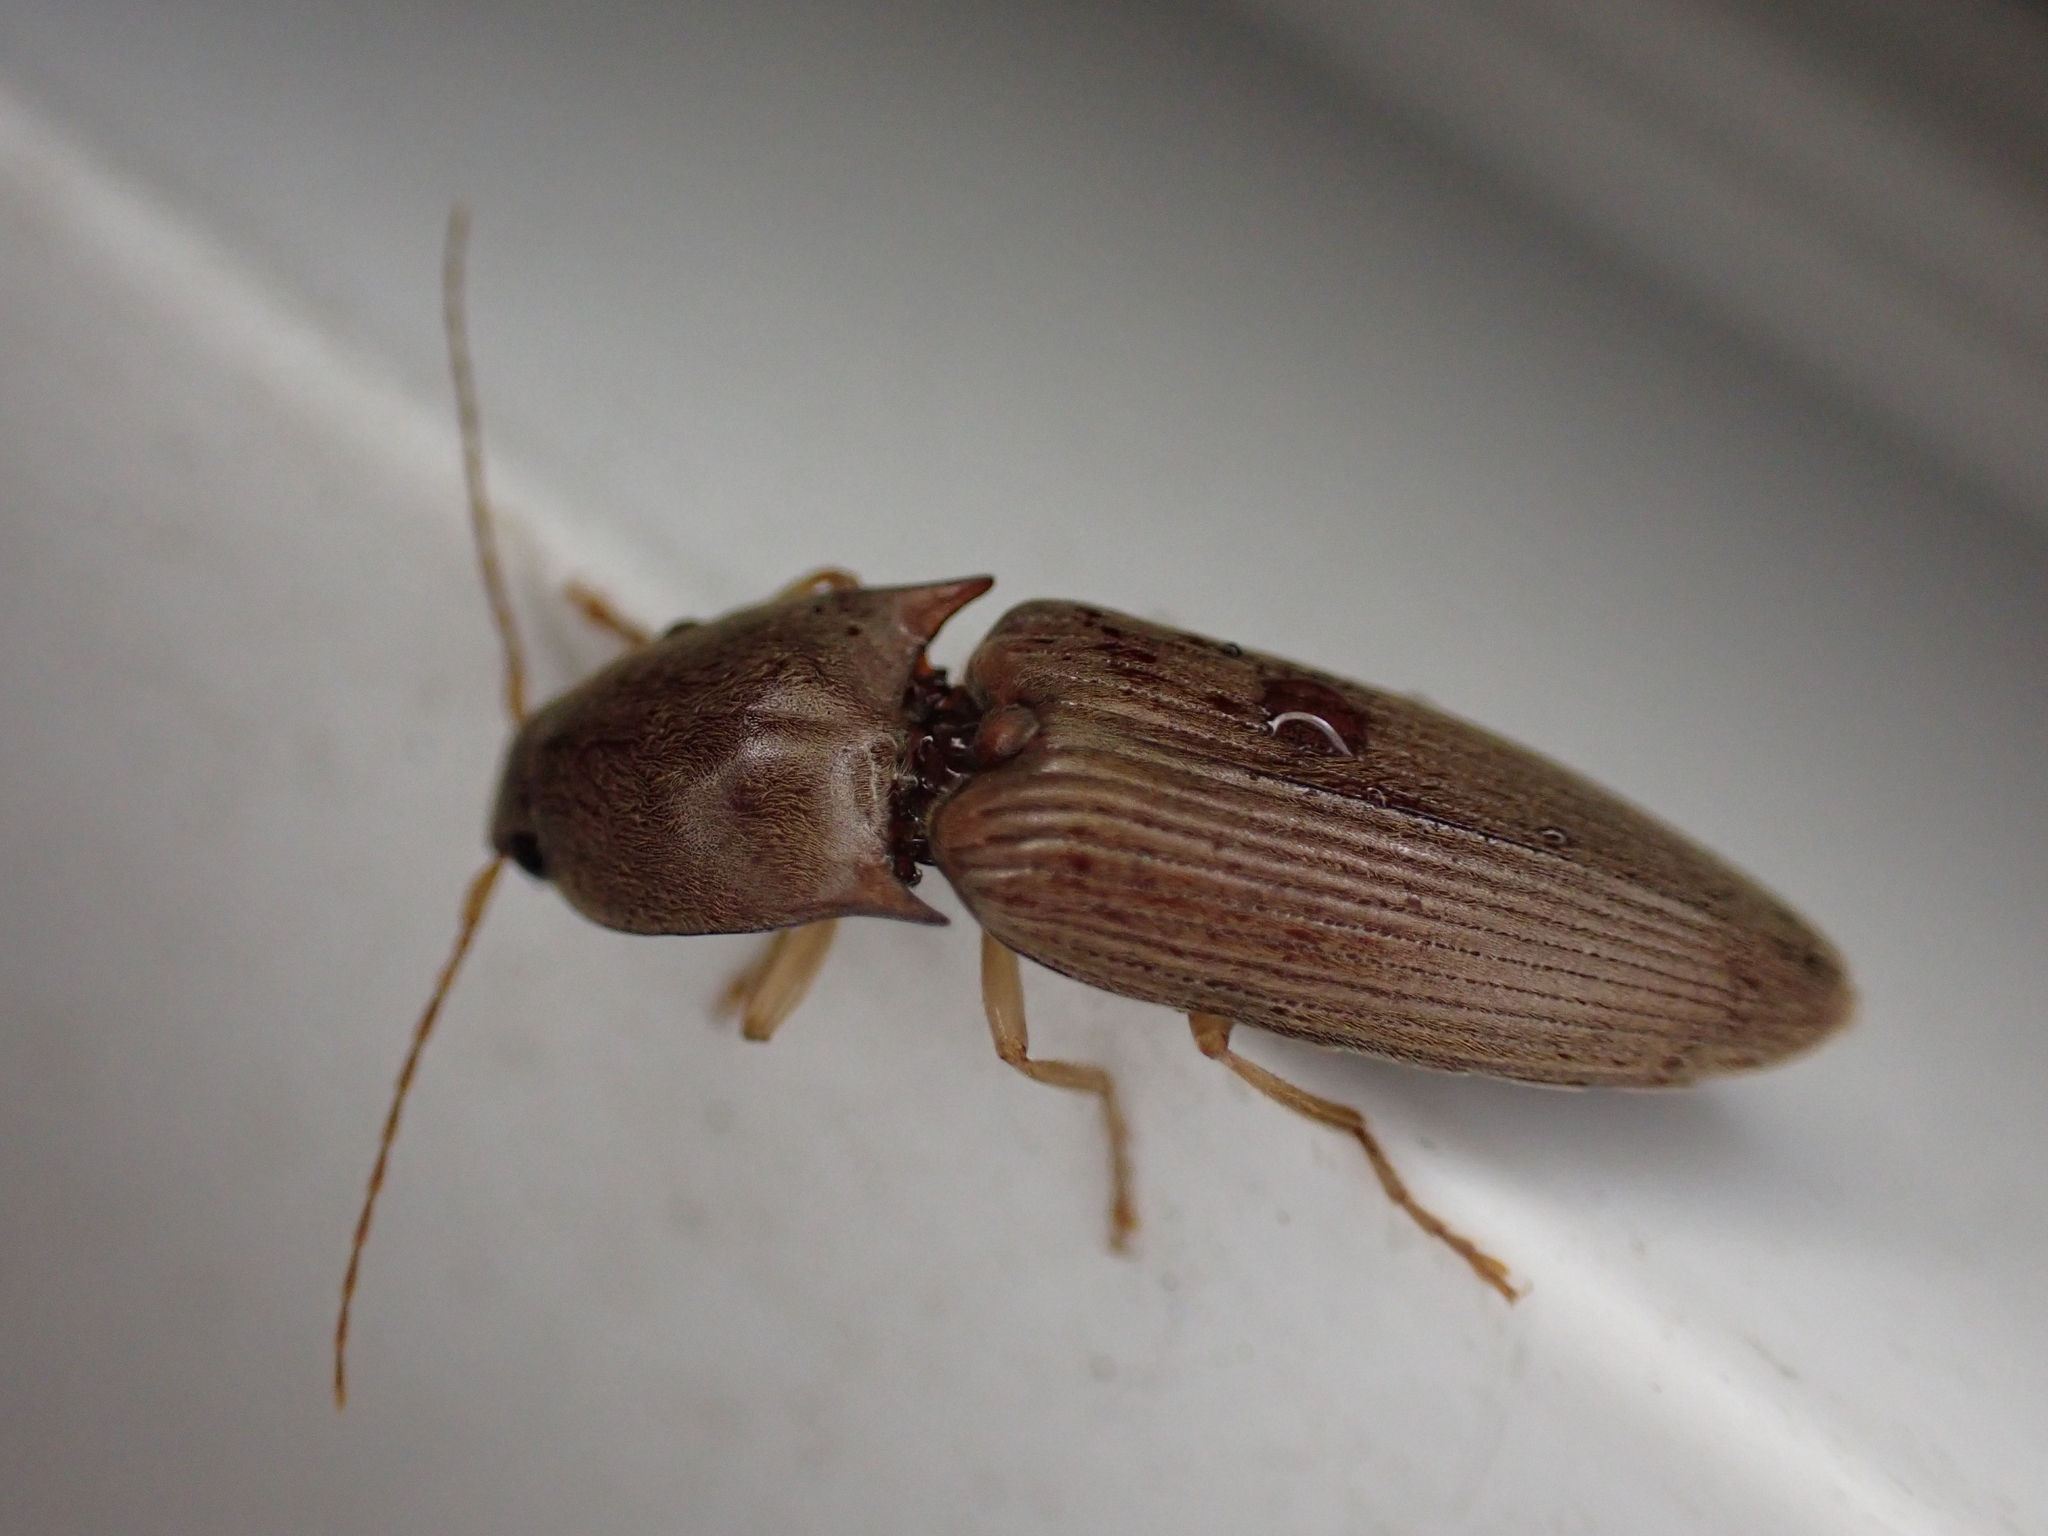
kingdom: Animalia
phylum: Arthropoda
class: Insecta
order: Coleoptera
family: Elateridae
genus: Monocrepidius
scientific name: Monocrepidius lividus
